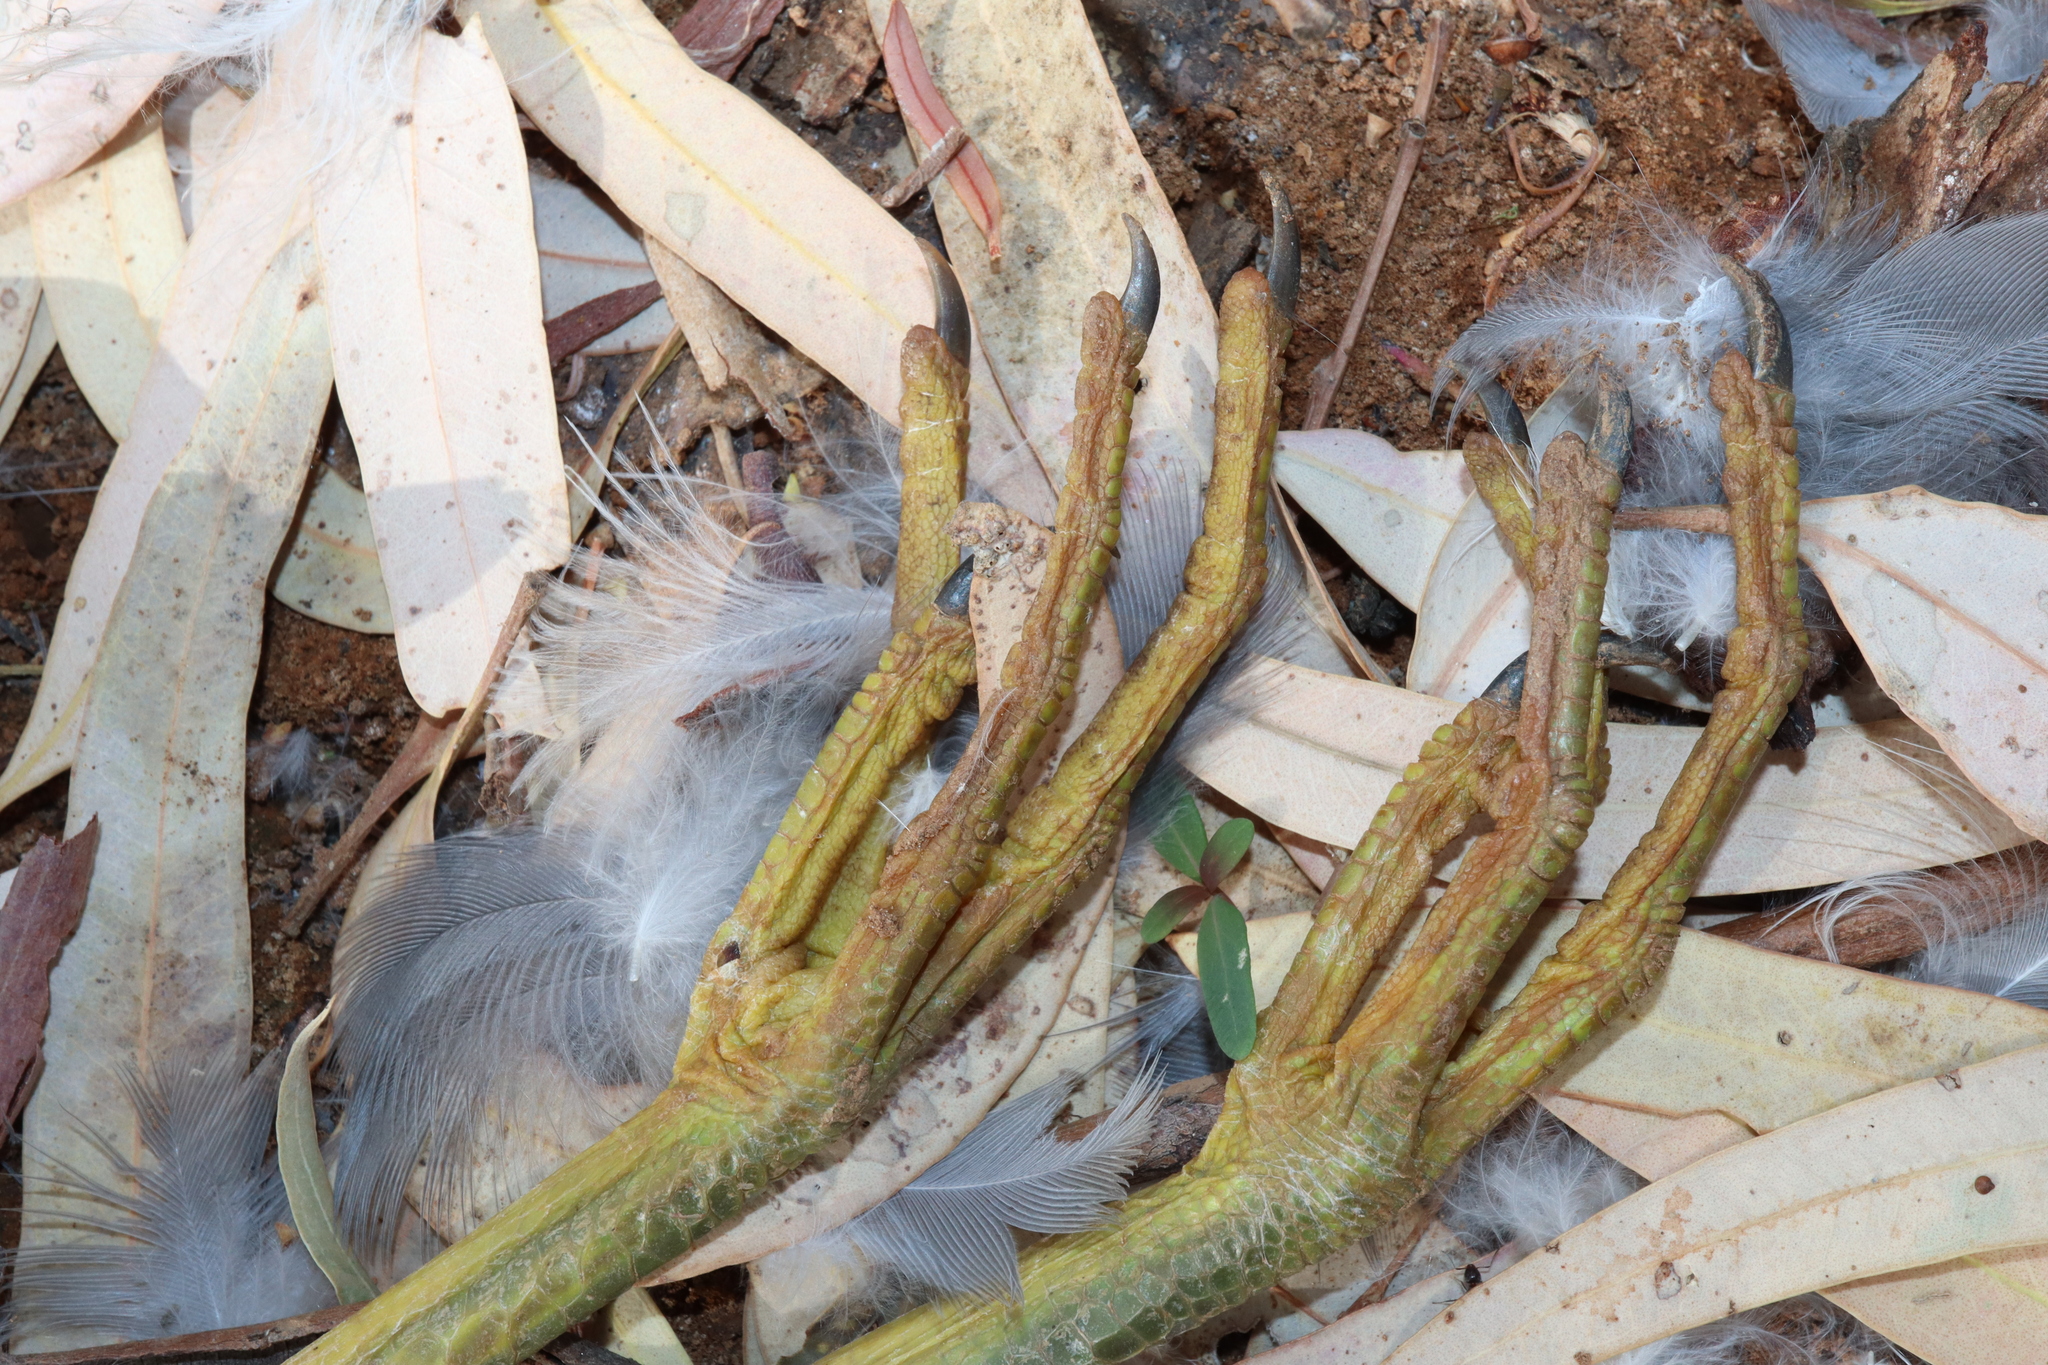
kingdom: Animalia
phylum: Chordata
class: Aves
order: Pelecaniformes
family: Ardeidae
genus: Egretta
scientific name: Egretta novaehollandiae
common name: White-faced heron
